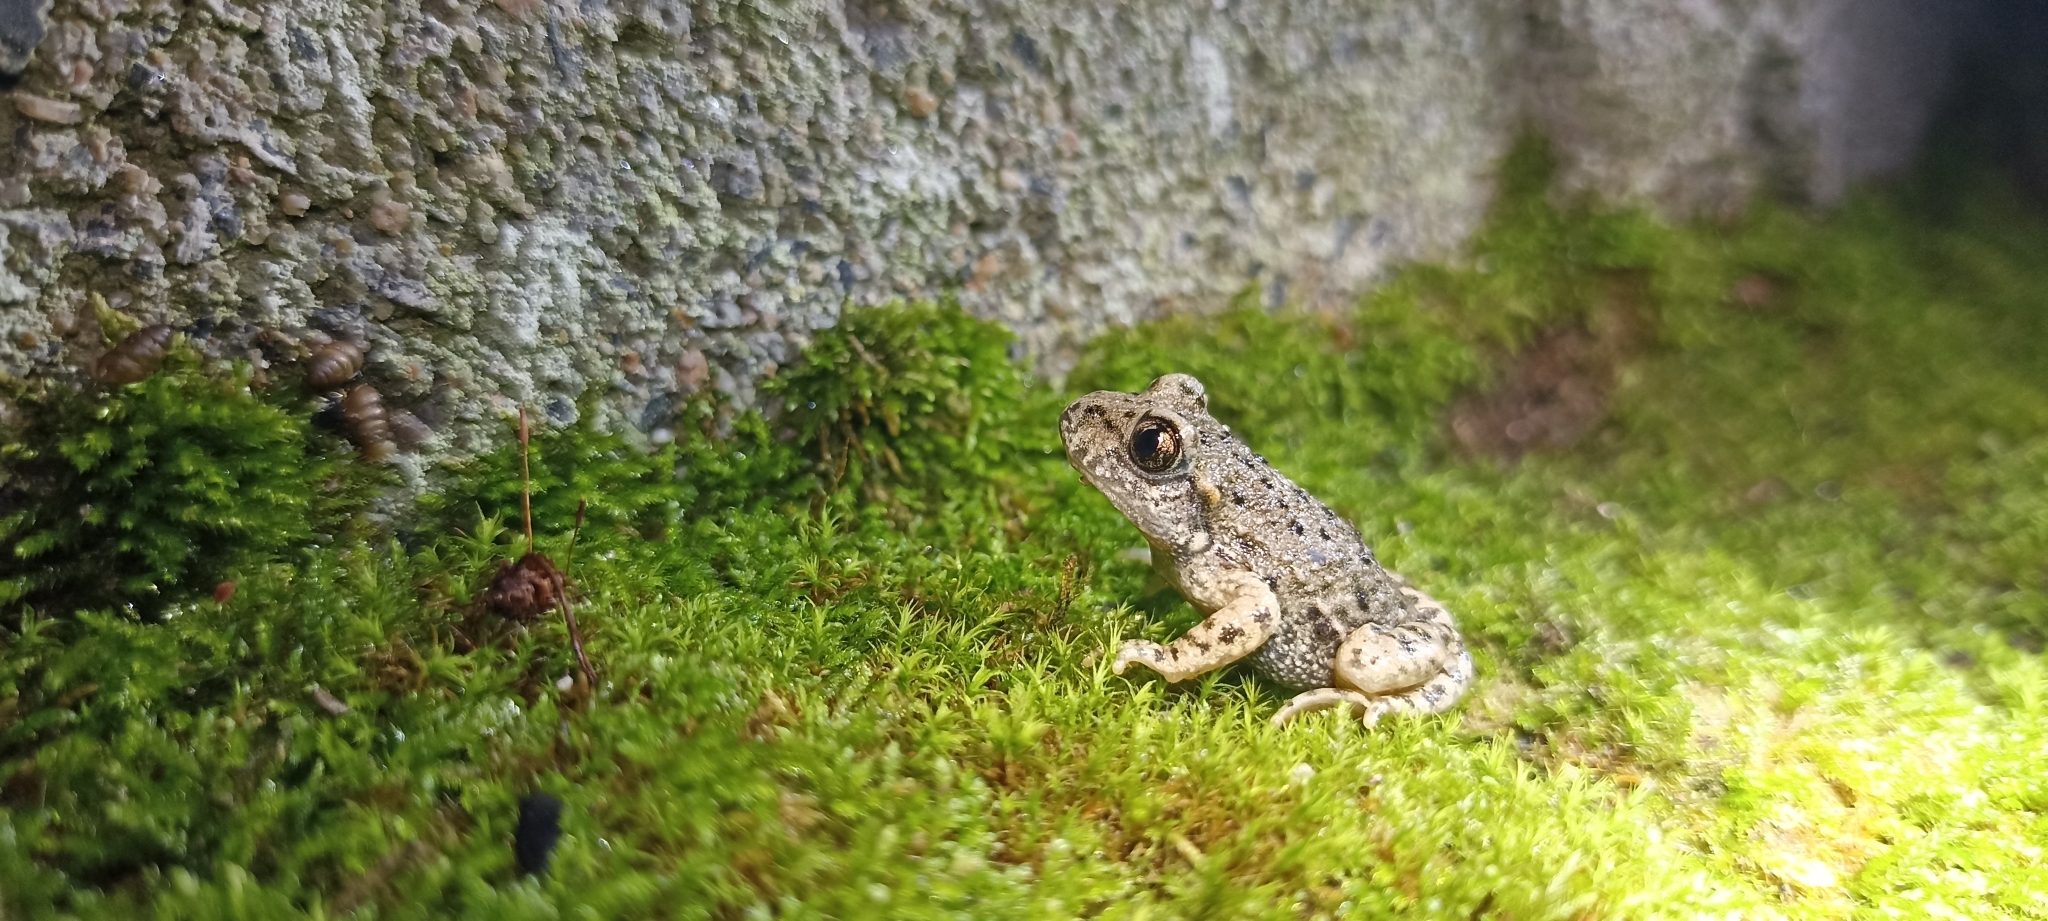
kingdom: Animalia
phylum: Chordata
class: Amphibia
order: Anura
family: Alytidae
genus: Alytes
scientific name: Alytes obstetricans
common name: Midwife toad
